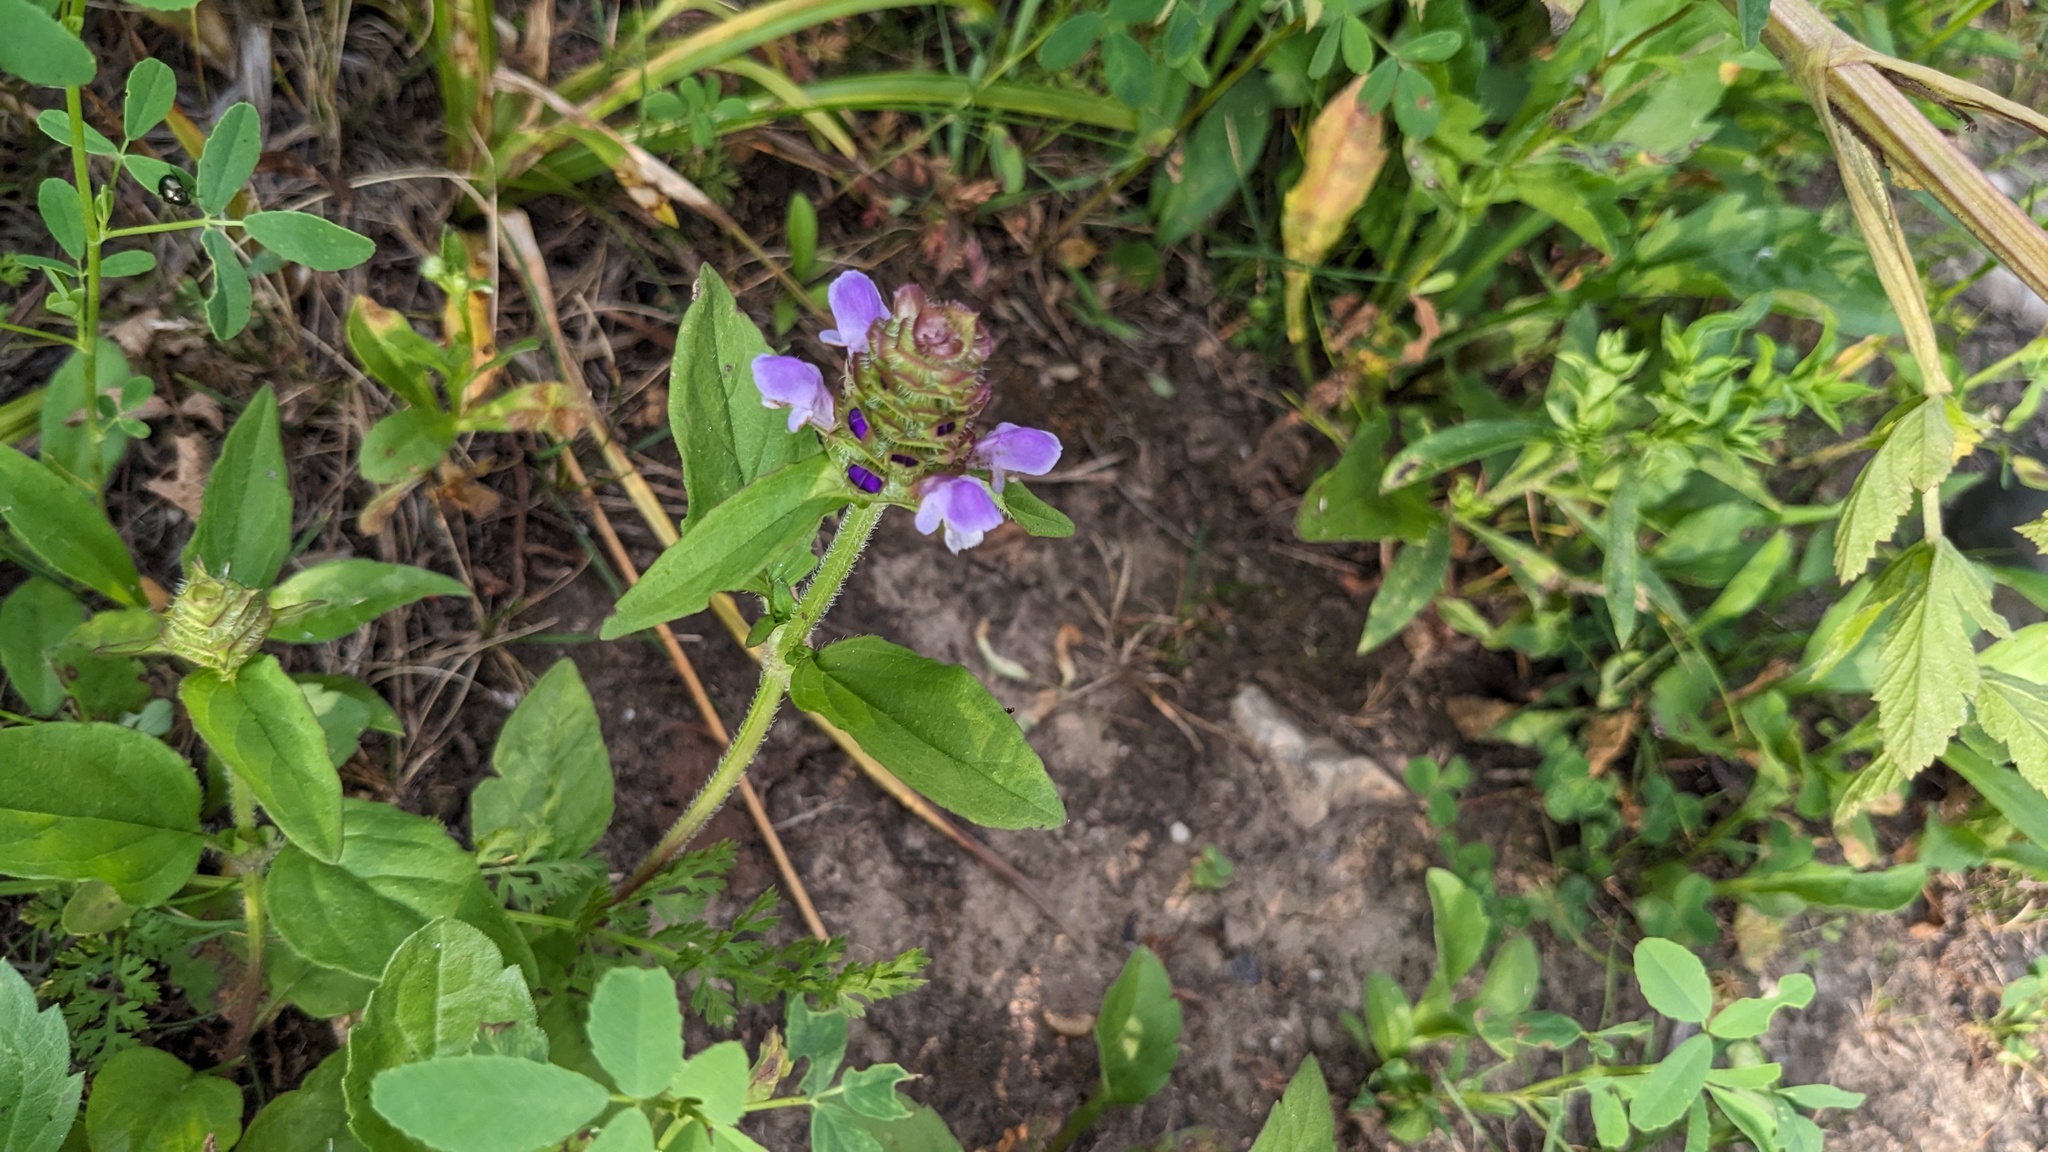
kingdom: Plantae
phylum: Tracheophyta
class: Magnoliopsida
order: Lamiales
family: Lamiaceae
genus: Prunella
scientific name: Prunella vulgaris
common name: Heal-all
